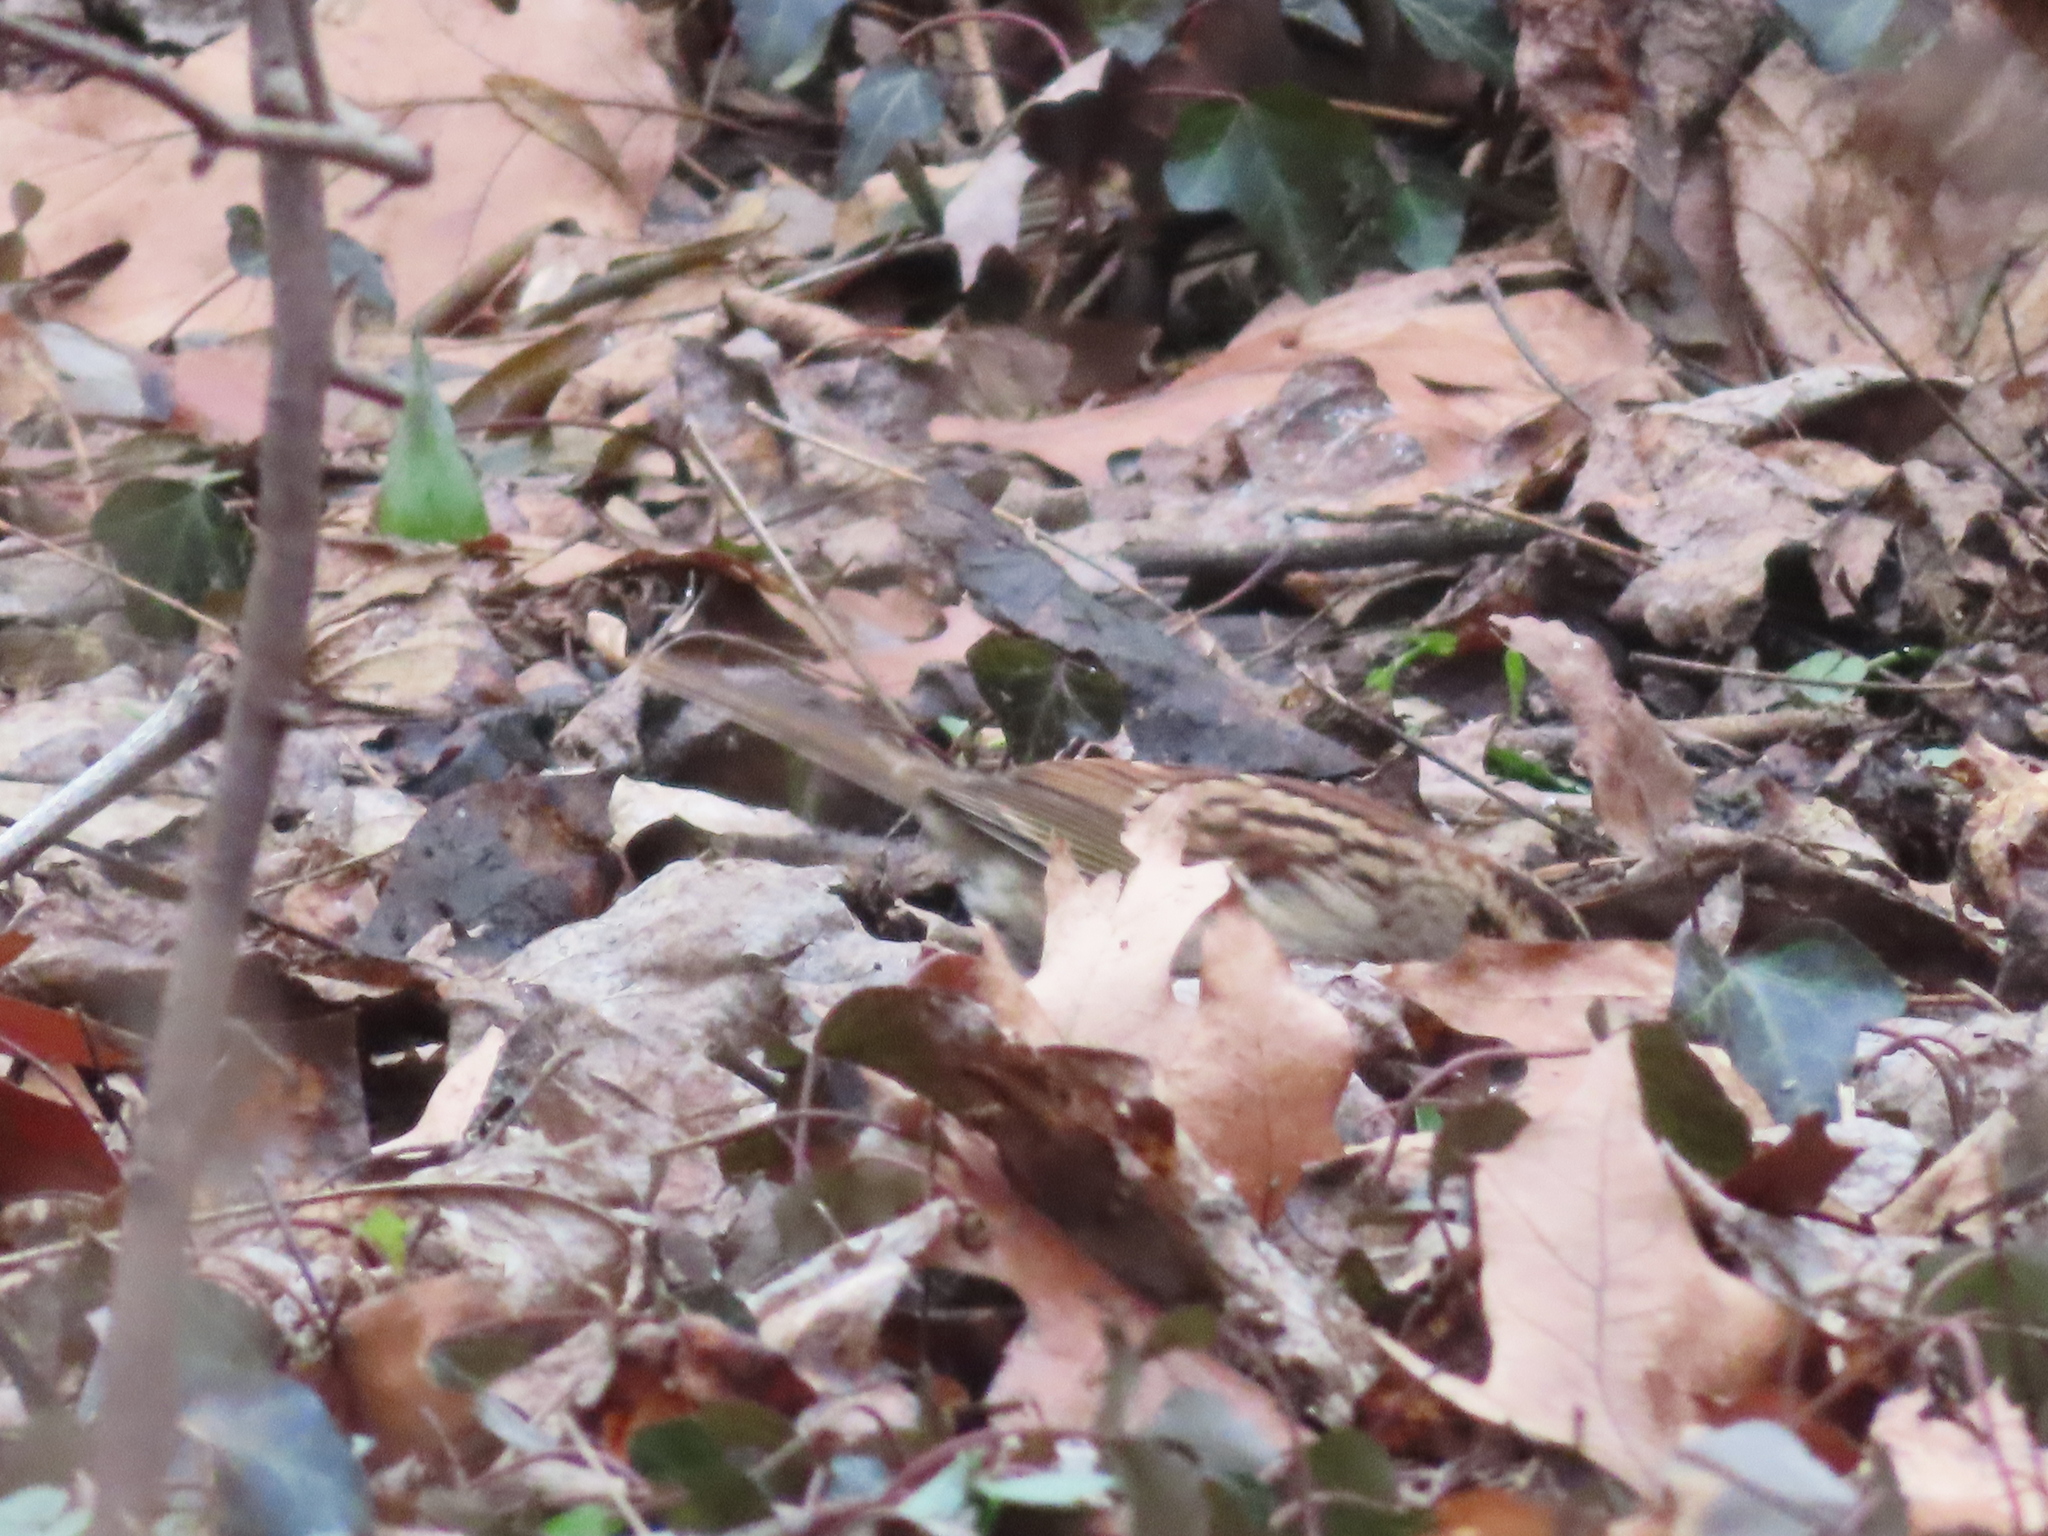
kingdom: Animalia
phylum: Chordata
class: Aves
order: Passeriformes
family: Passerellidae
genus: Zonotrichia
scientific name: Zonotrichia albicollis
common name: White-throated sparrow
